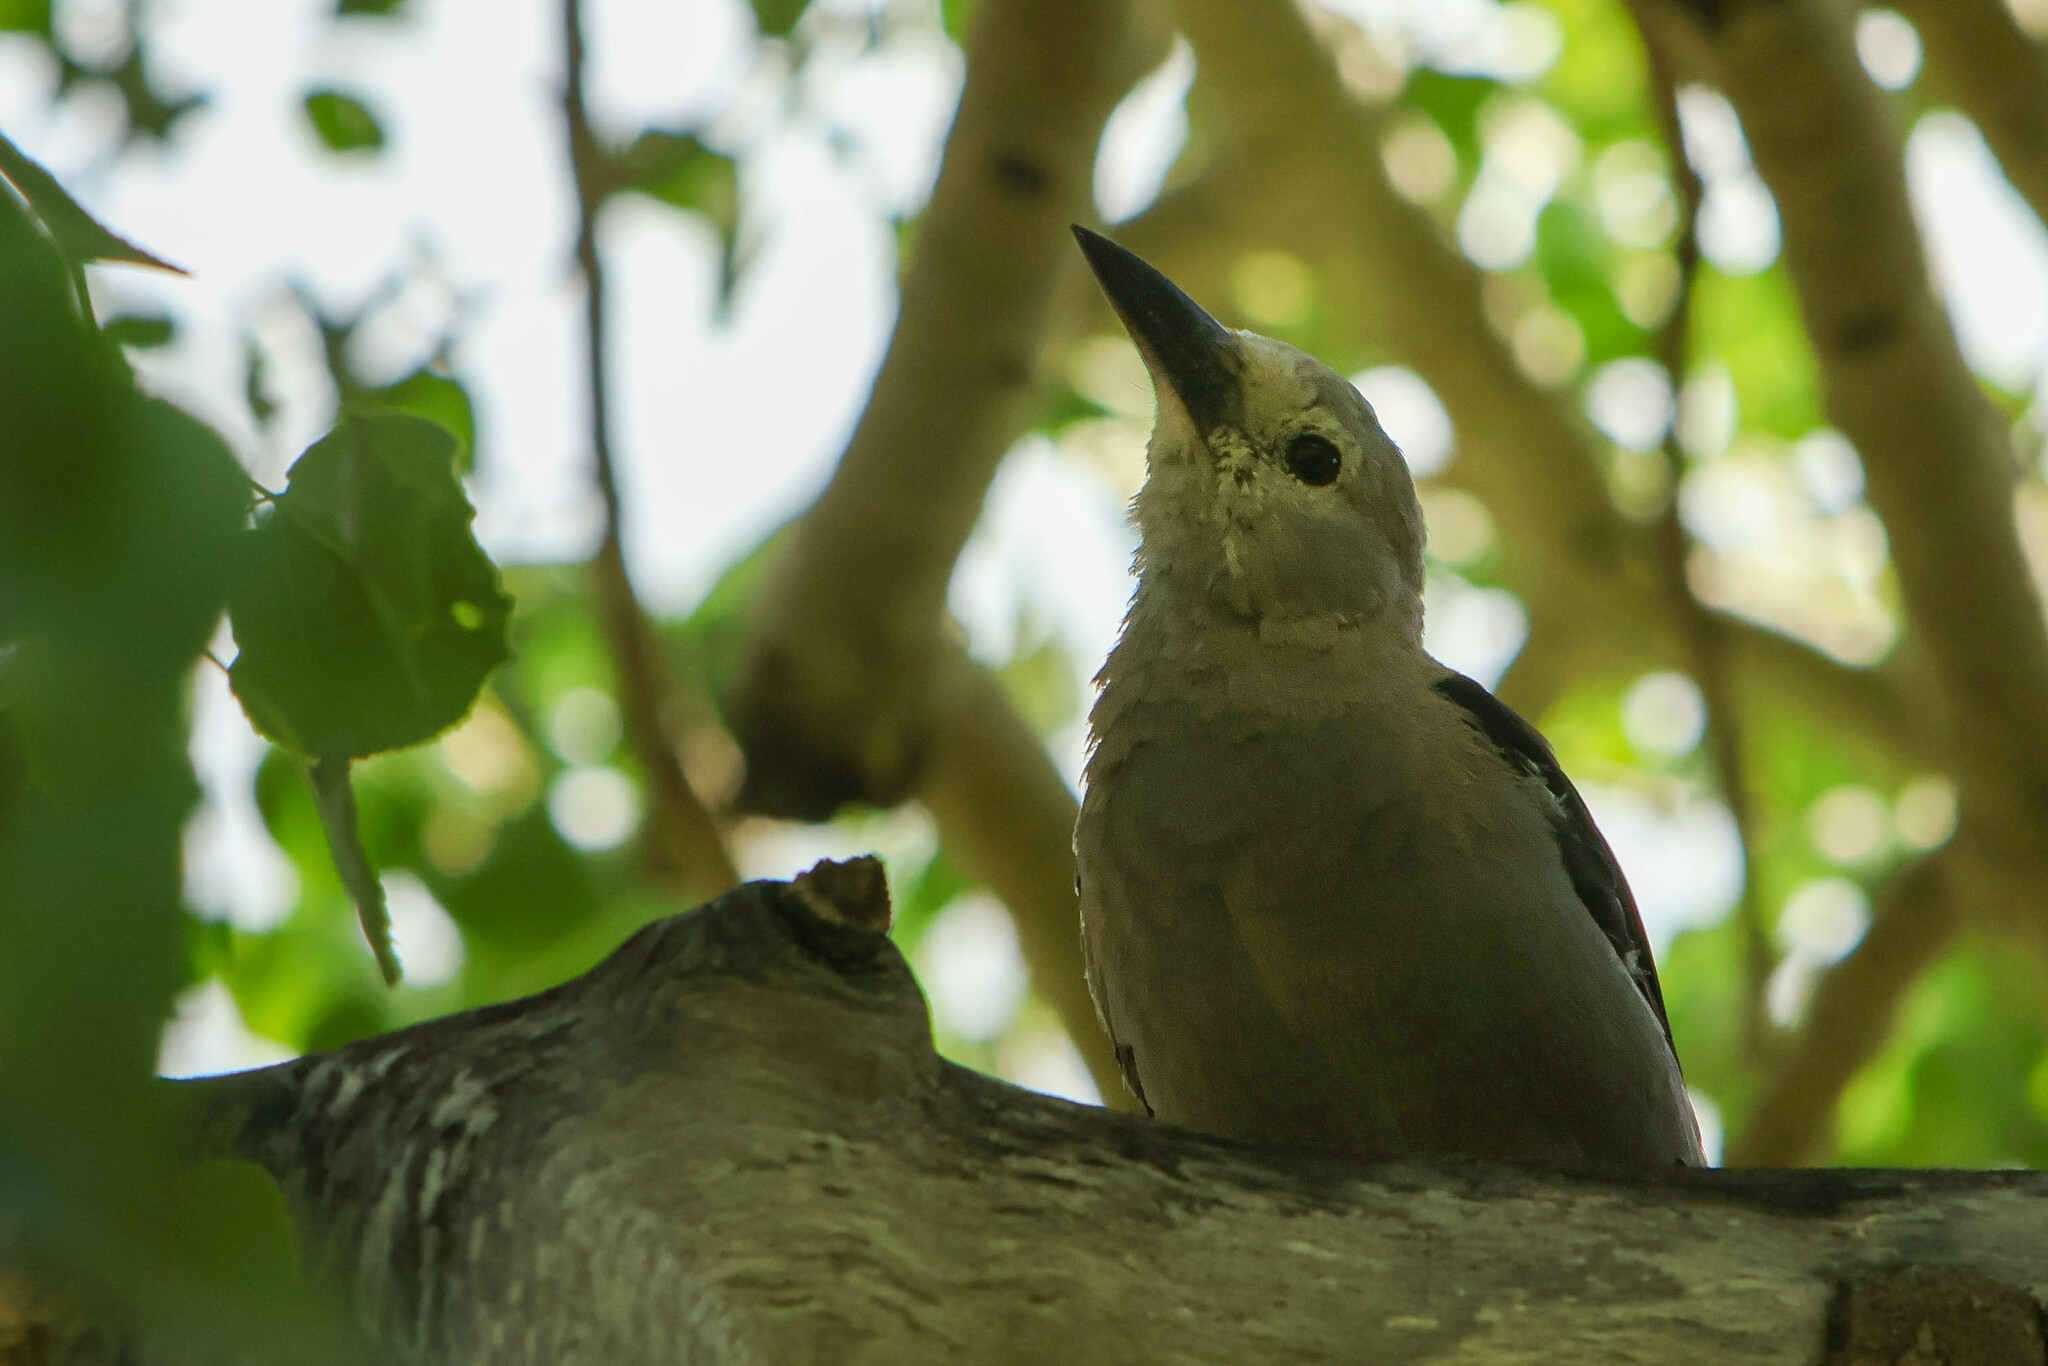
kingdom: Animalia
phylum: Chordata
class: Aves
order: Passeriformes
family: Corvidae
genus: Nucifraga
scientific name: Nucifraga columbiana
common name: Clark's nutcracker
